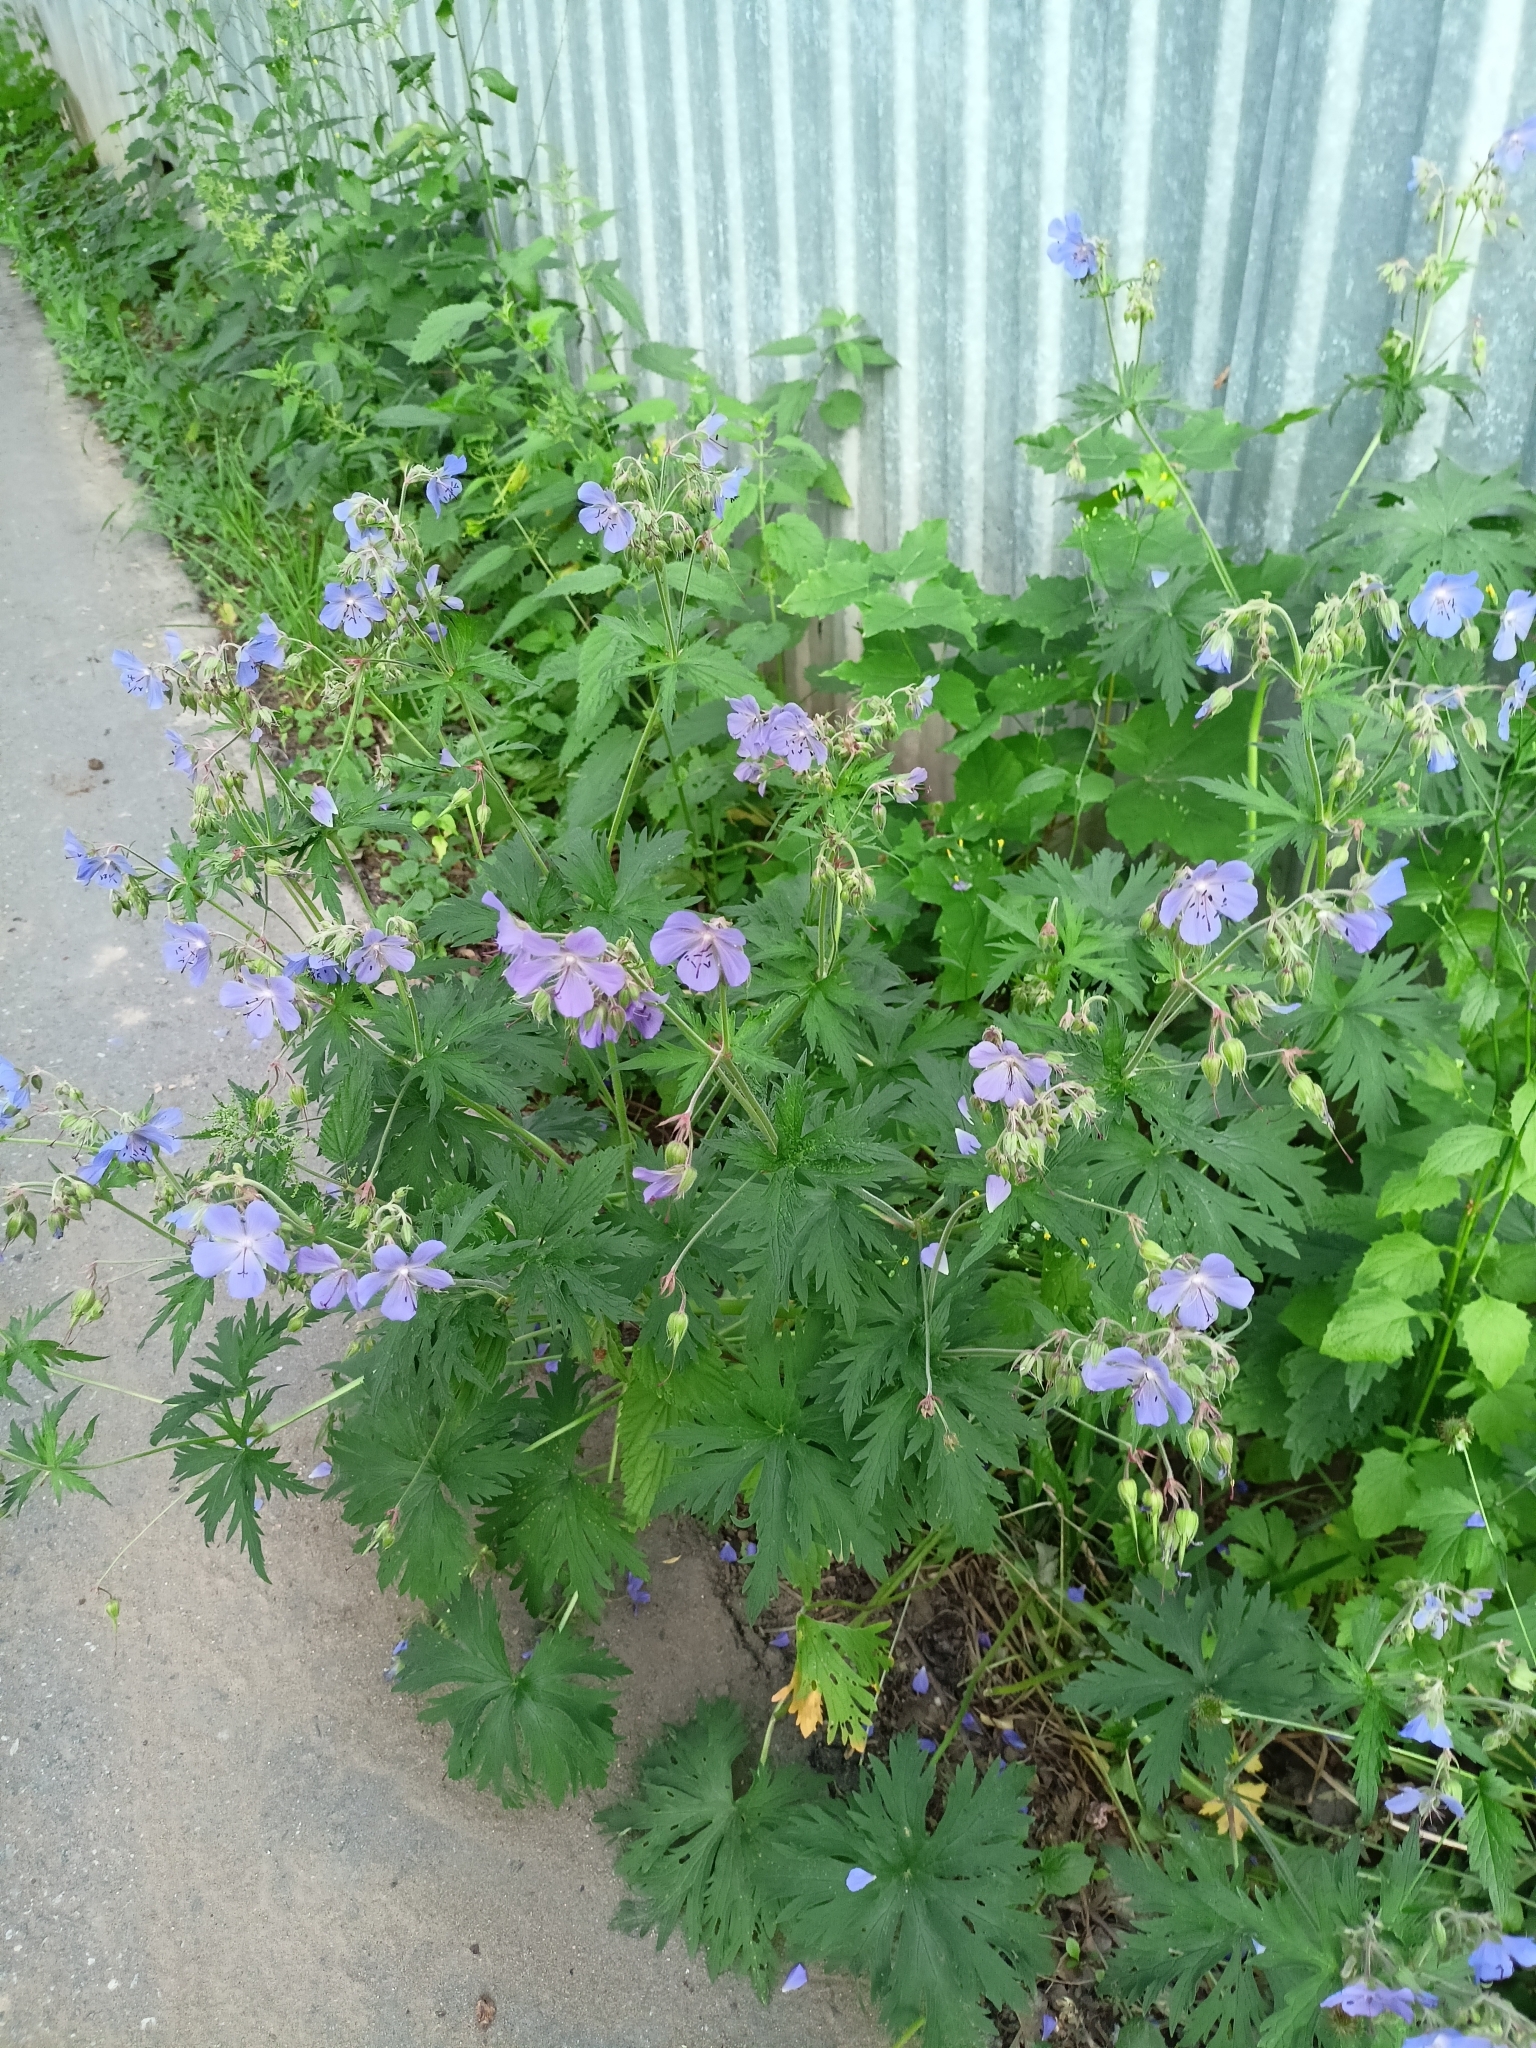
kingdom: Plantae
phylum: Tracheophyta
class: Magnoliopsida
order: Geraniales
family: Geraniaceae
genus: Geranium
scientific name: Geranium pratense
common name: Meadow crane's-bill
